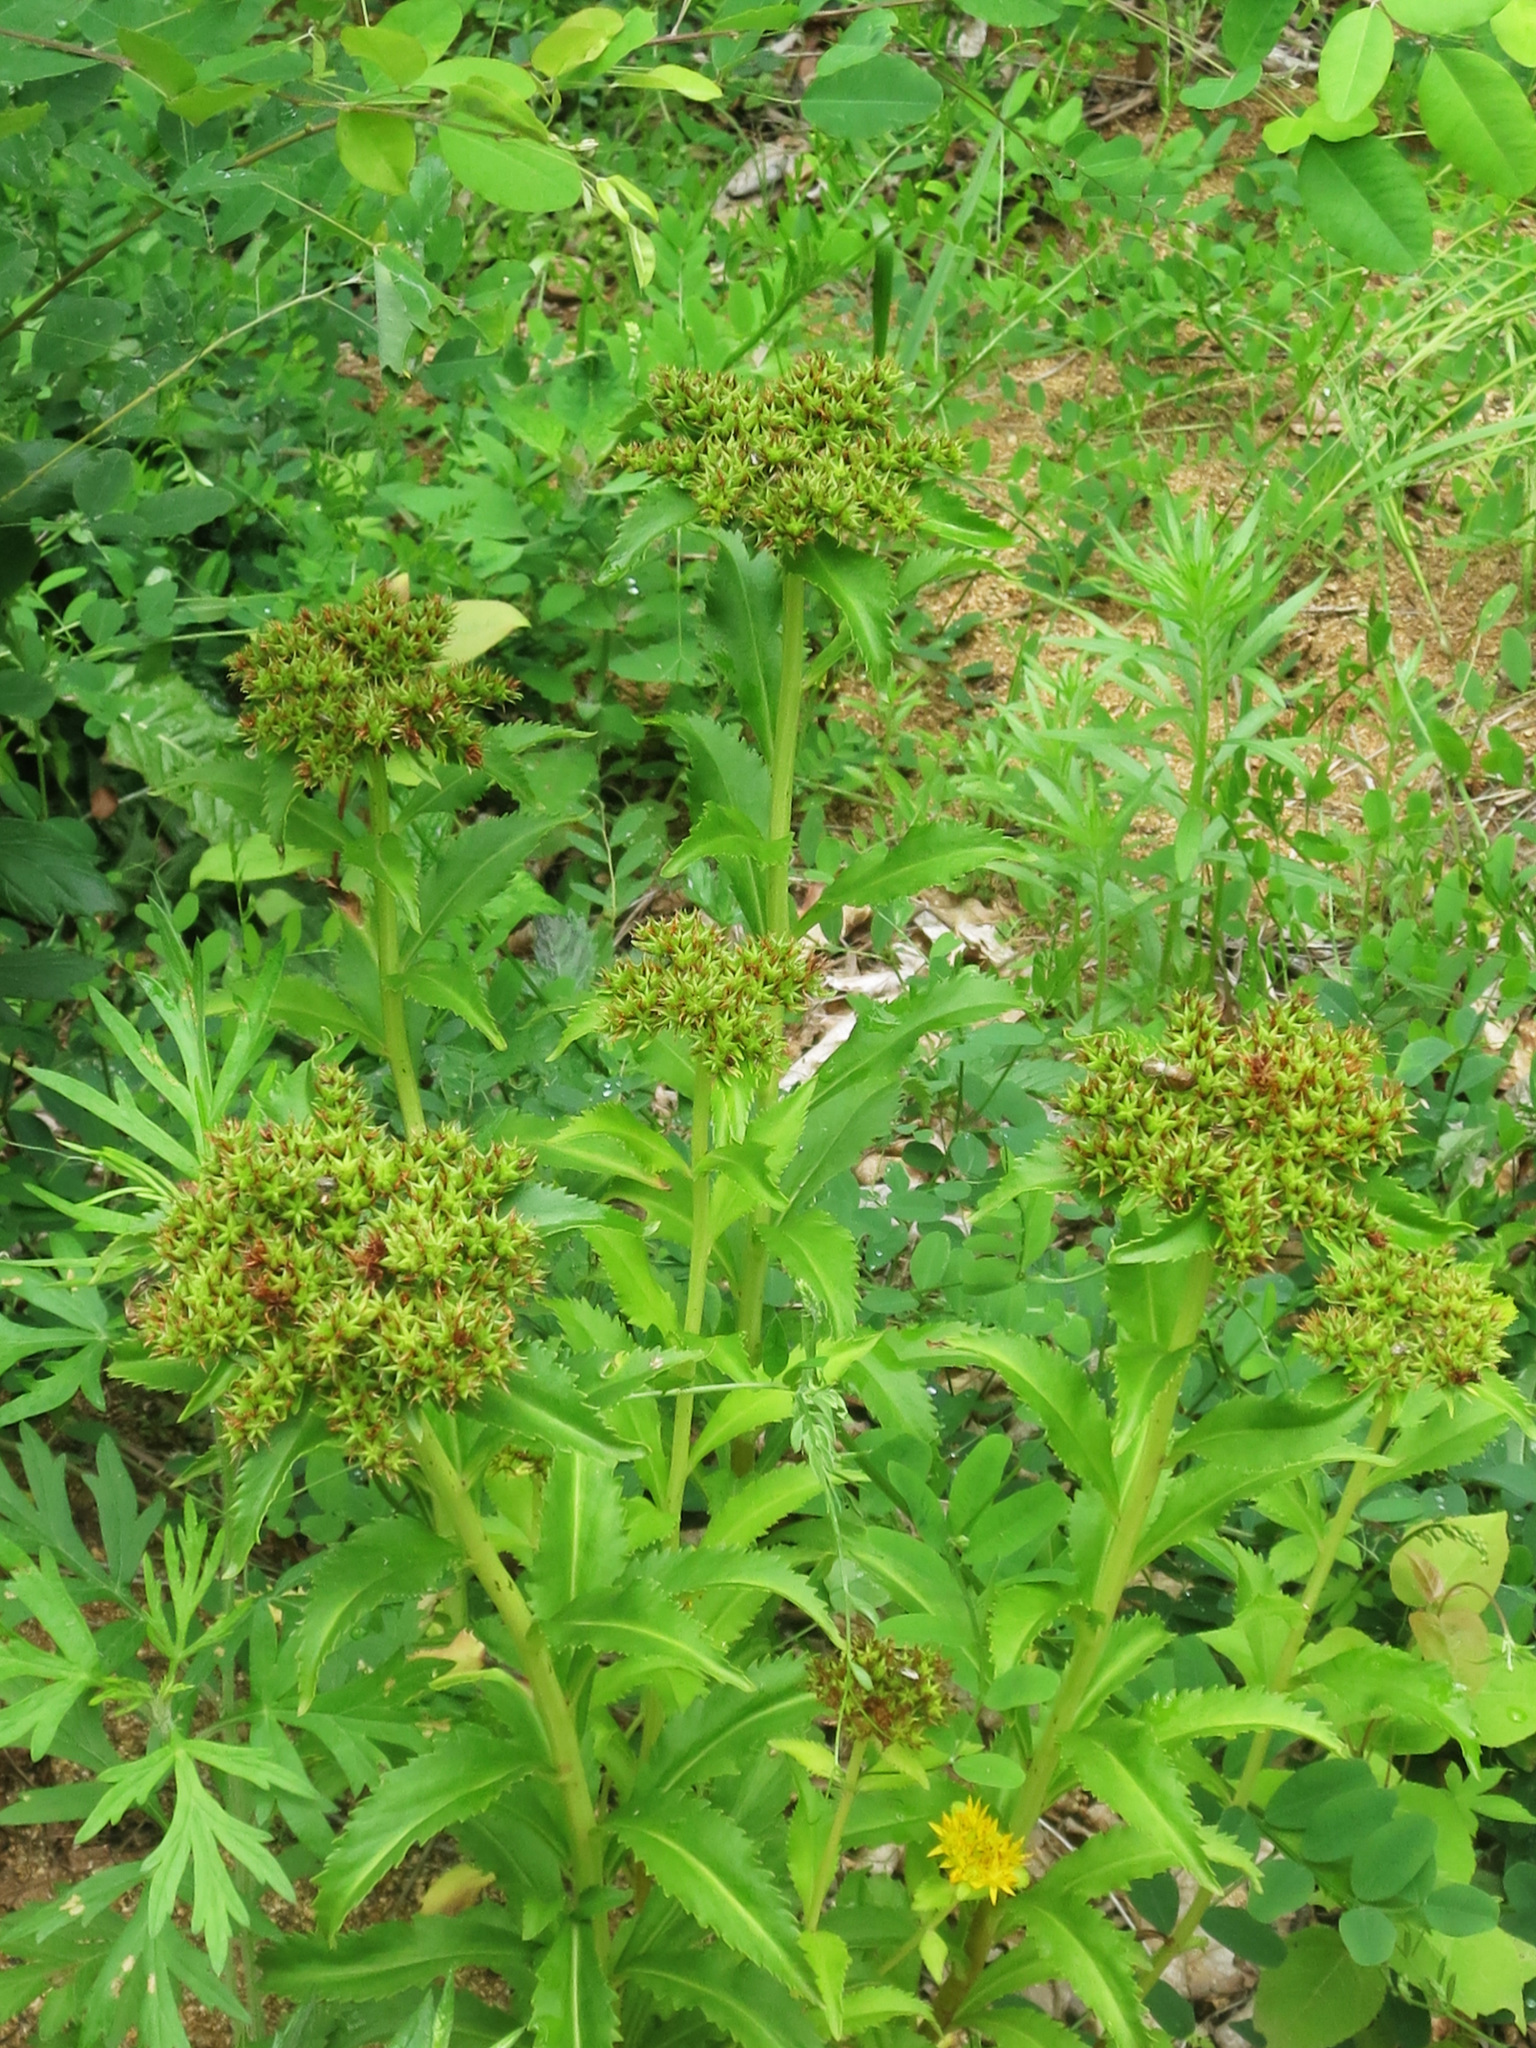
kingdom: Plantae
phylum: Tracheophyta
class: Magnoliopsida
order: Saxifragales
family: Crassulaceae
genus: Phedimus
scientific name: Phedimus aizoon
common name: Orpin aizoon
